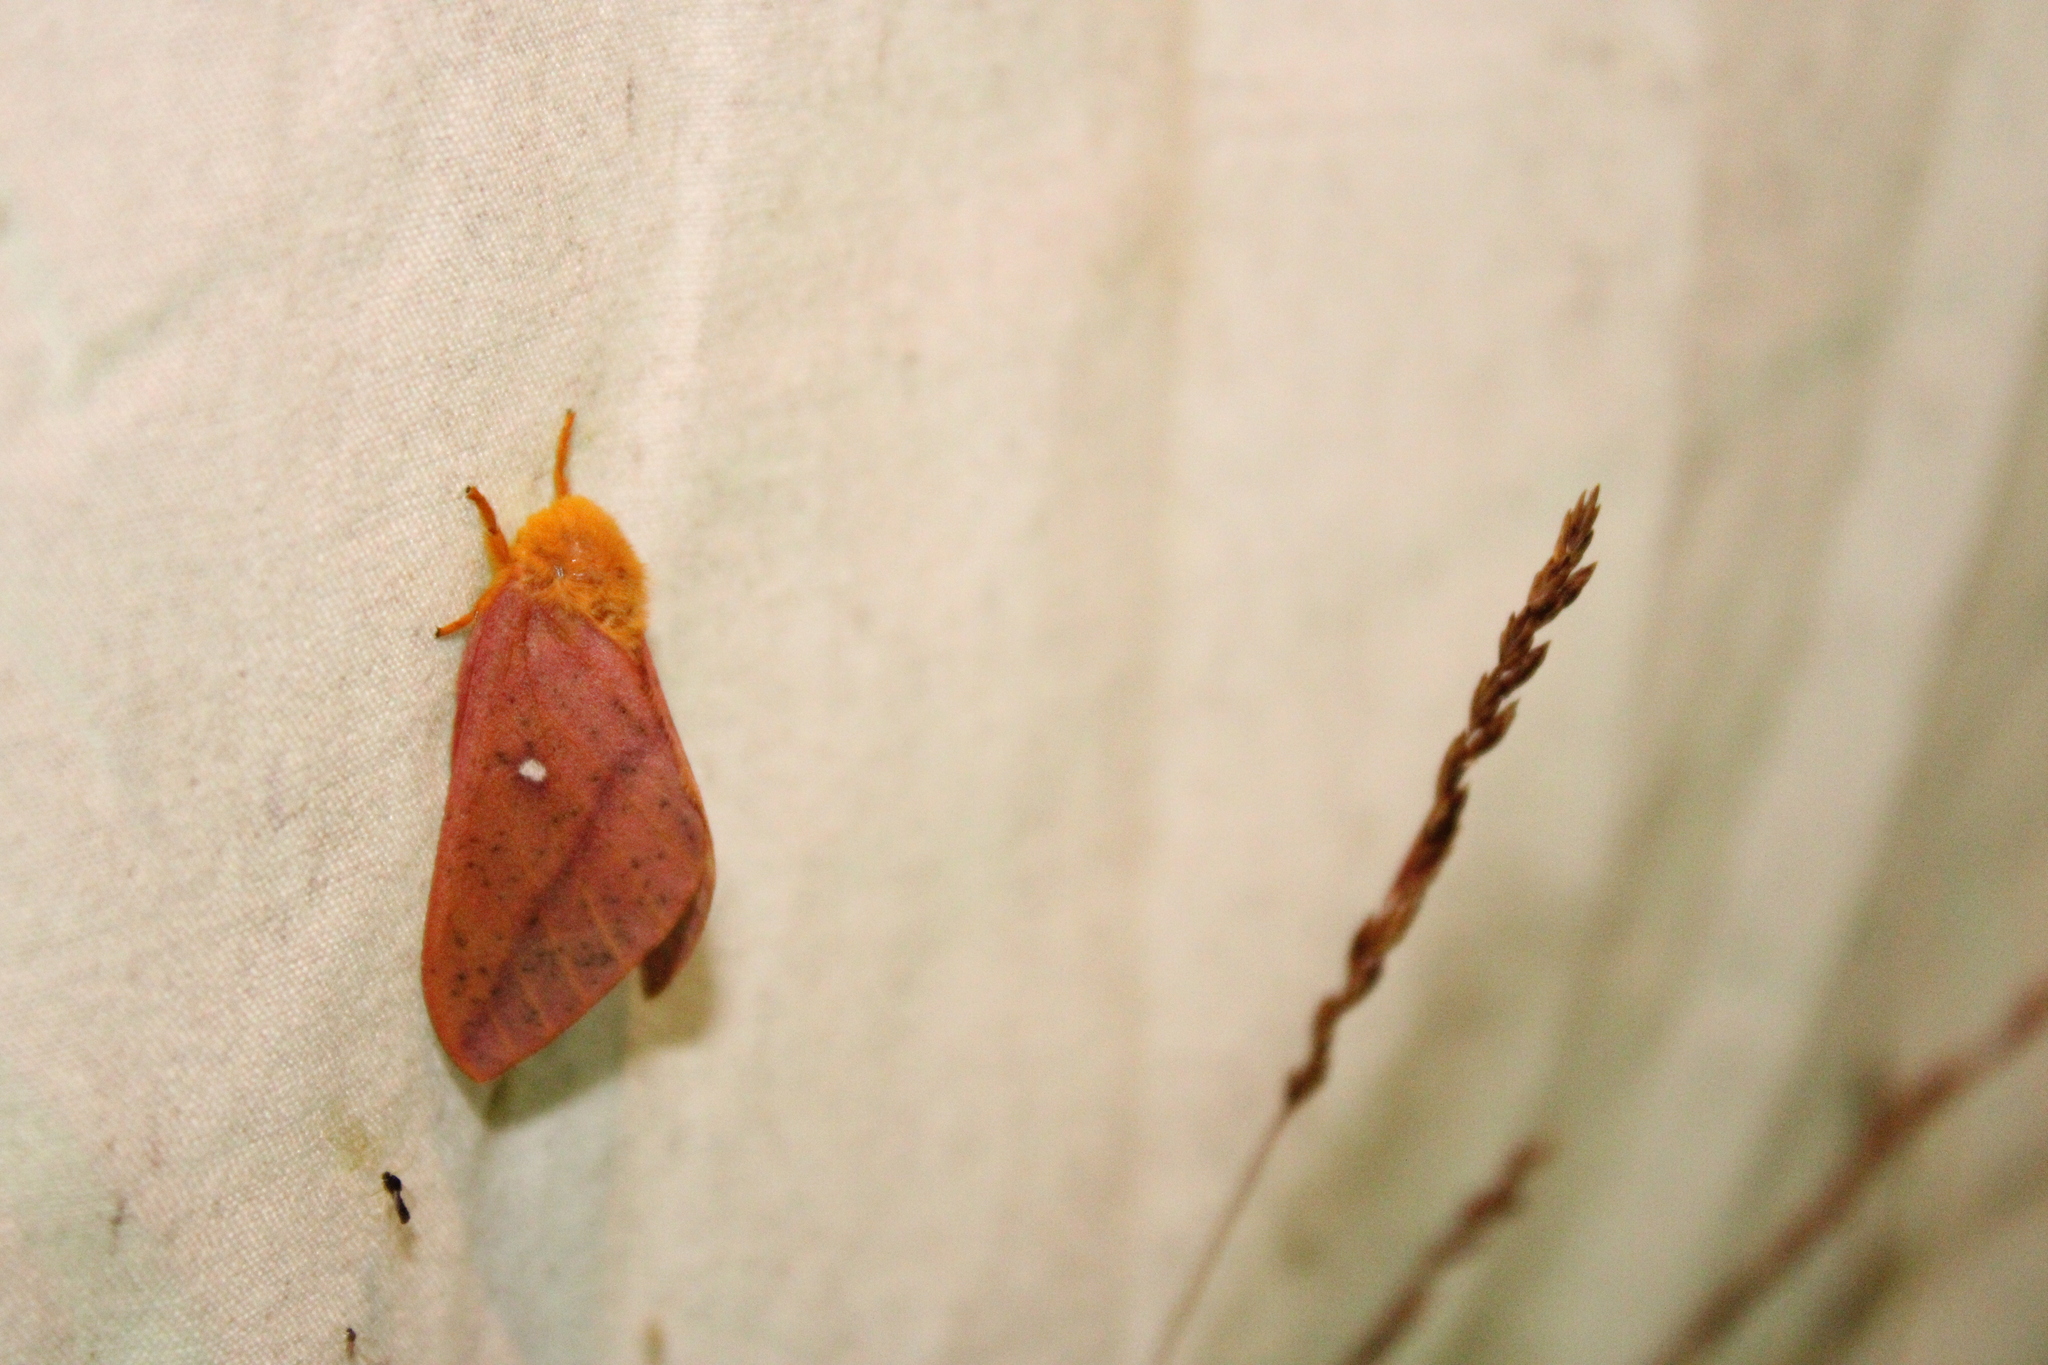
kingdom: Animalia
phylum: Arthropoda
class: Insecta
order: Lepidoptera
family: Saturniidae
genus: Anisota
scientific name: Anisota senatoria
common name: Orange-striped oakworm moth
